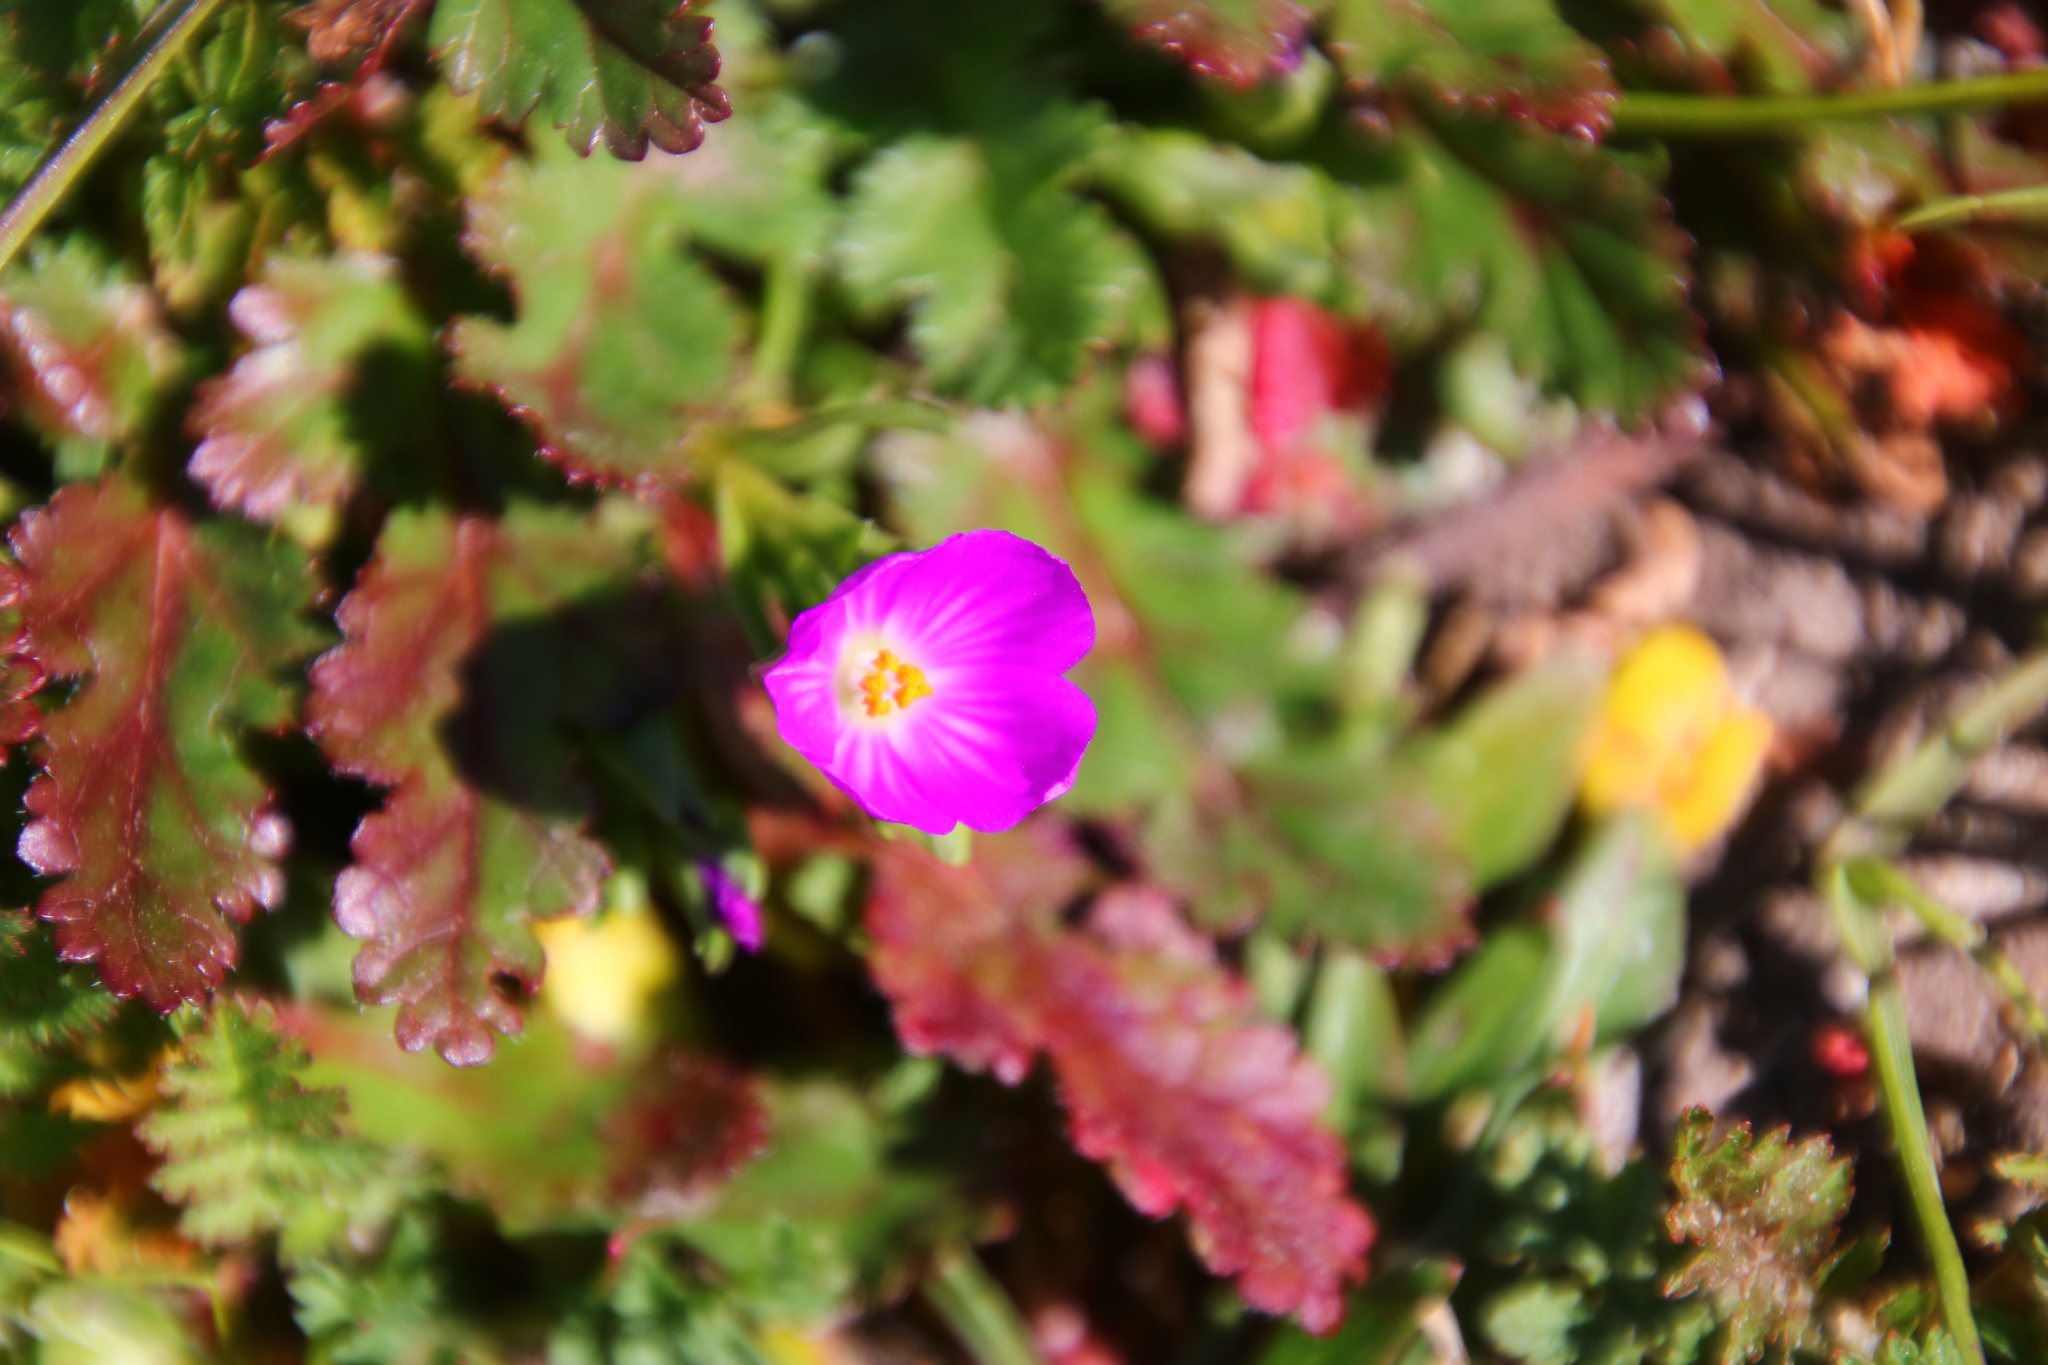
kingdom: Plantae
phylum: Tracheophyta
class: Magnoliopsida
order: Caryophyllales
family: Montiaceae
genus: Calandrinia
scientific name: Calandrinia menziesii
